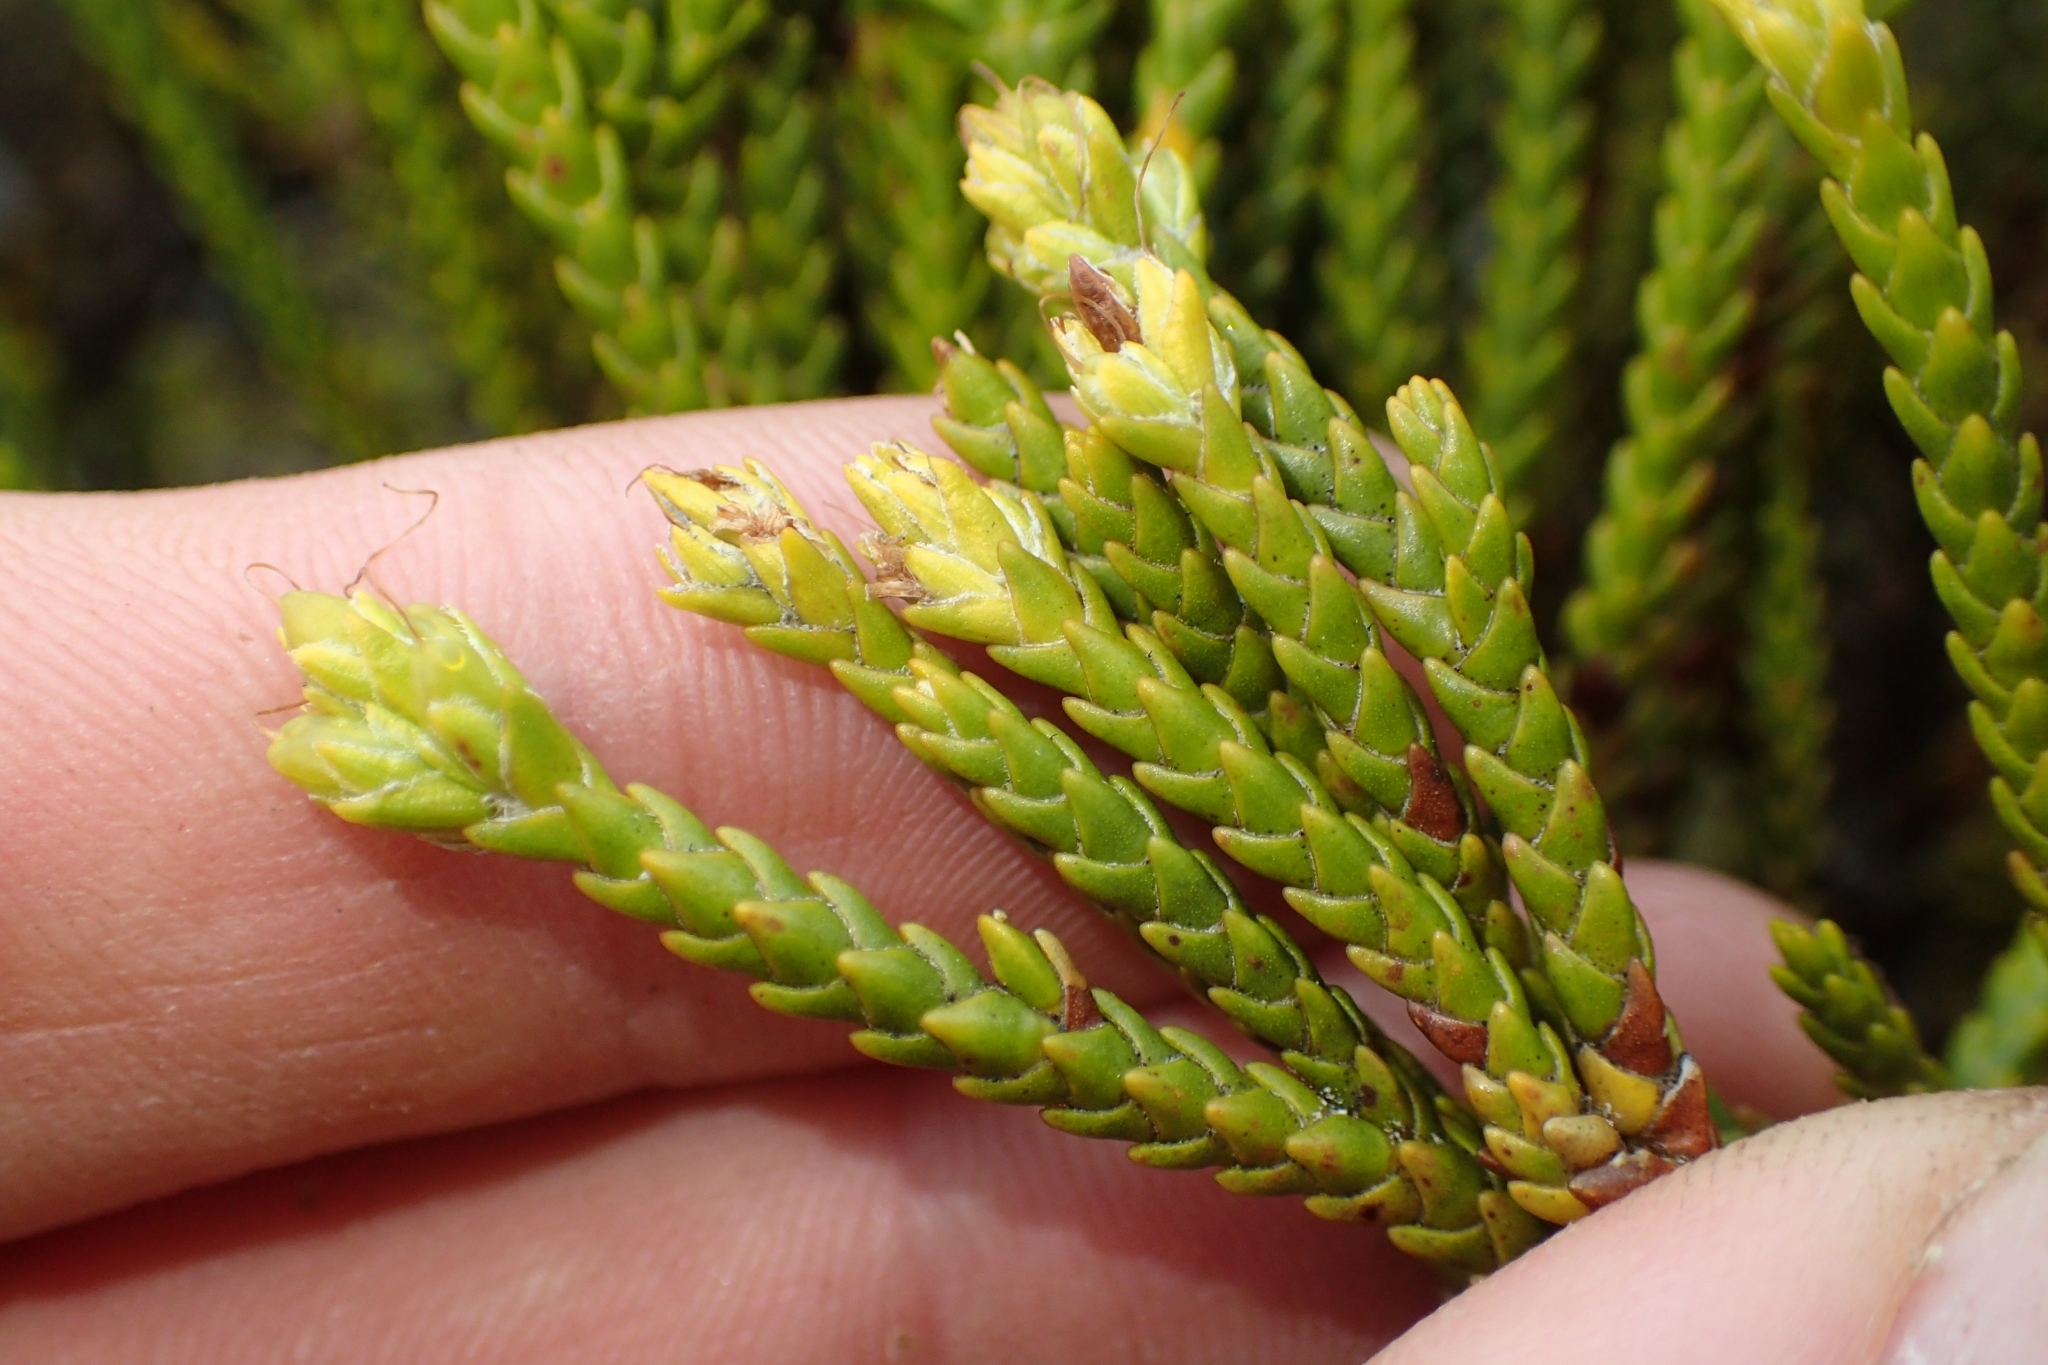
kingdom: Plantae
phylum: Tracheophyta
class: Magnoliopsida
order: Lamiales
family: Plantaginaceae
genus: Veronica
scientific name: Veronica tetragona
